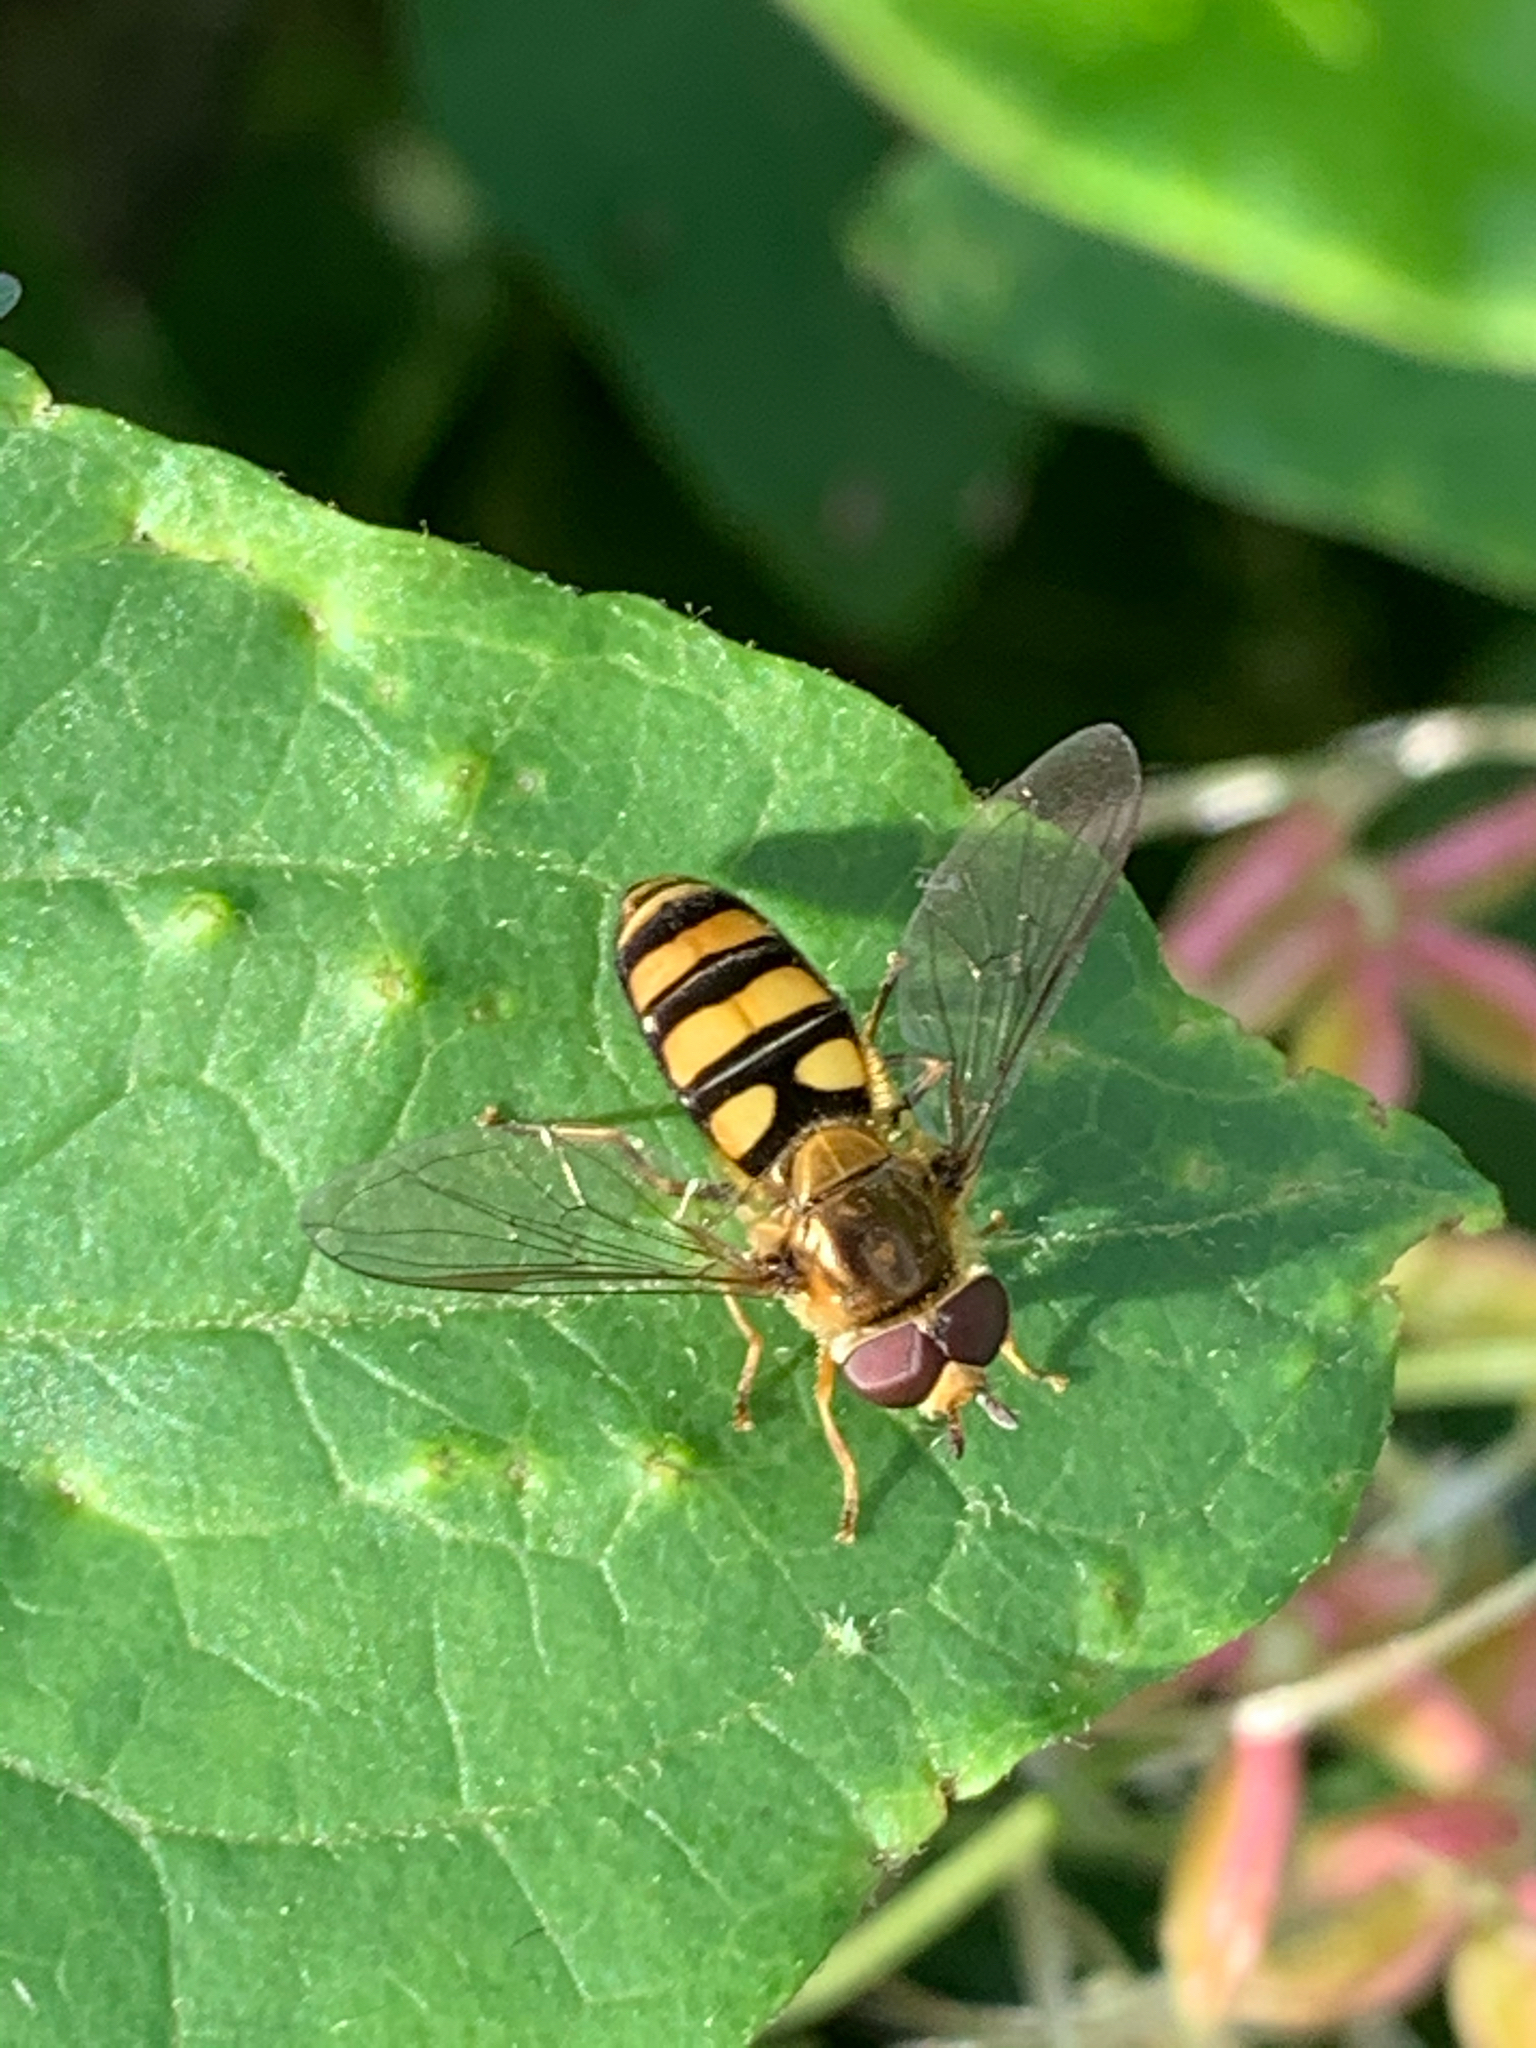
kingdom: Animalia
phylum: Arthropoda
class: Insecta
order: Diptera
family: Syrphidae
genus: Eupeodes
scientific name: Eupeodes
